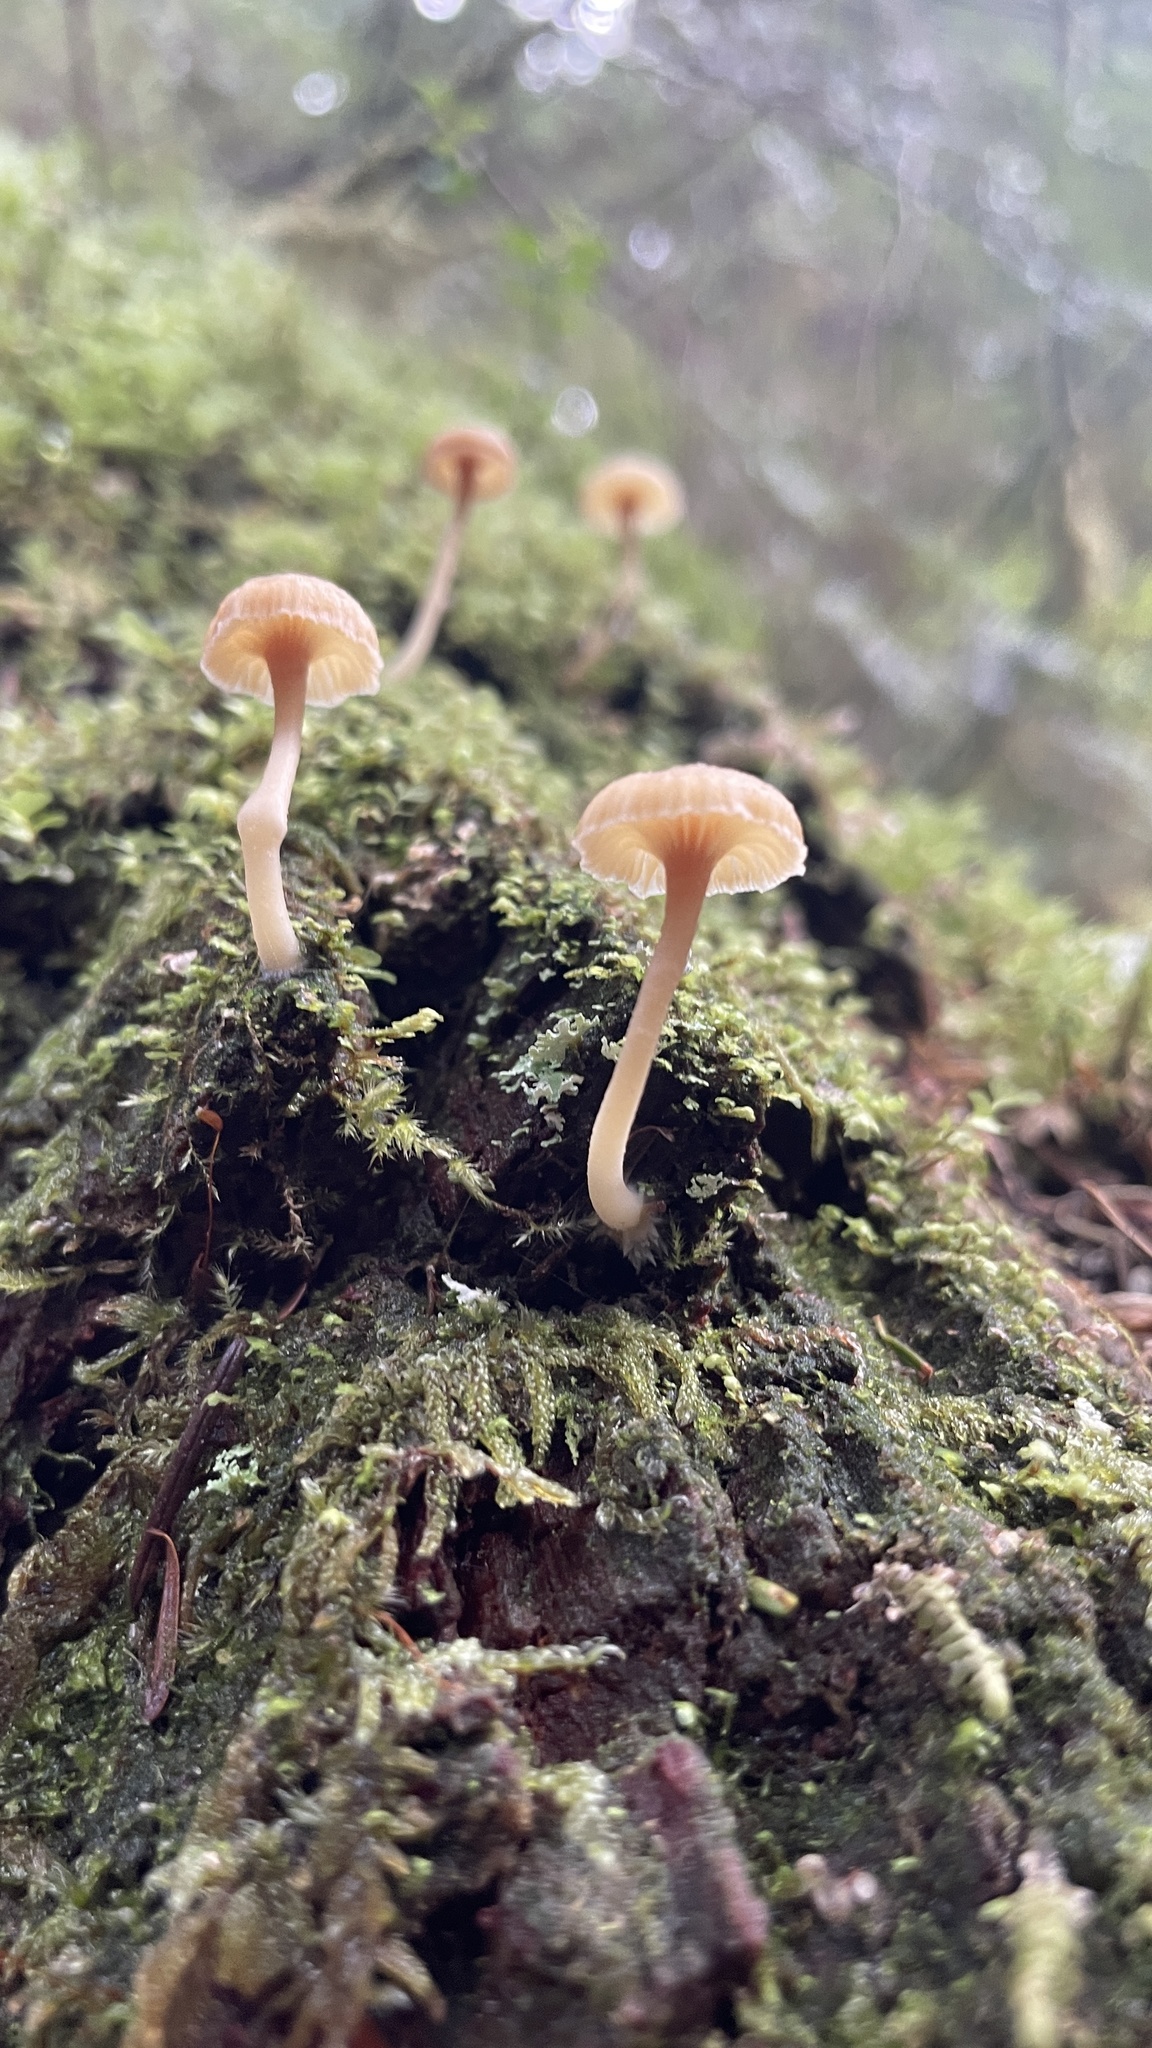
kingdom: Fungi
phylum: Basidiomycota
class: Agaricomycetes
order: Agaricales
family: Hygrophoraceae
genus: Lichenomphalia
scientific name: Lichenomphalia
